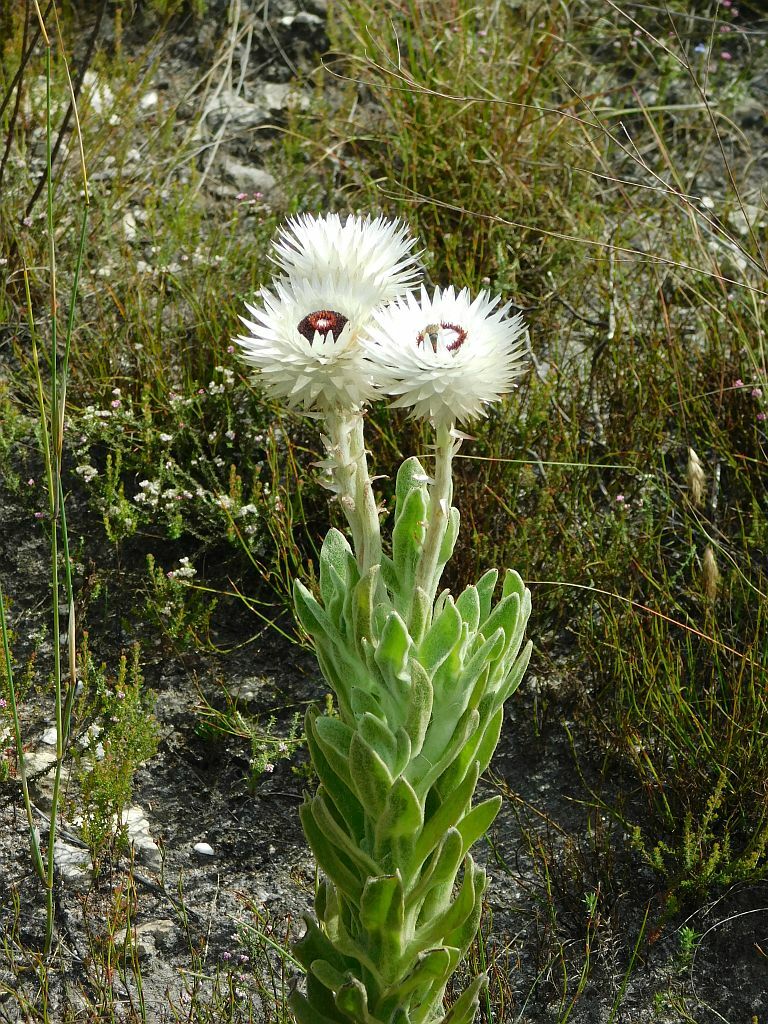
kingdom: Plantae
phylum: Tracheophyta
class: Magnoliopsida
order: Asterales
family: Asteraceae
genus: Syncarpha
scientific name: Syncarpha vestita
